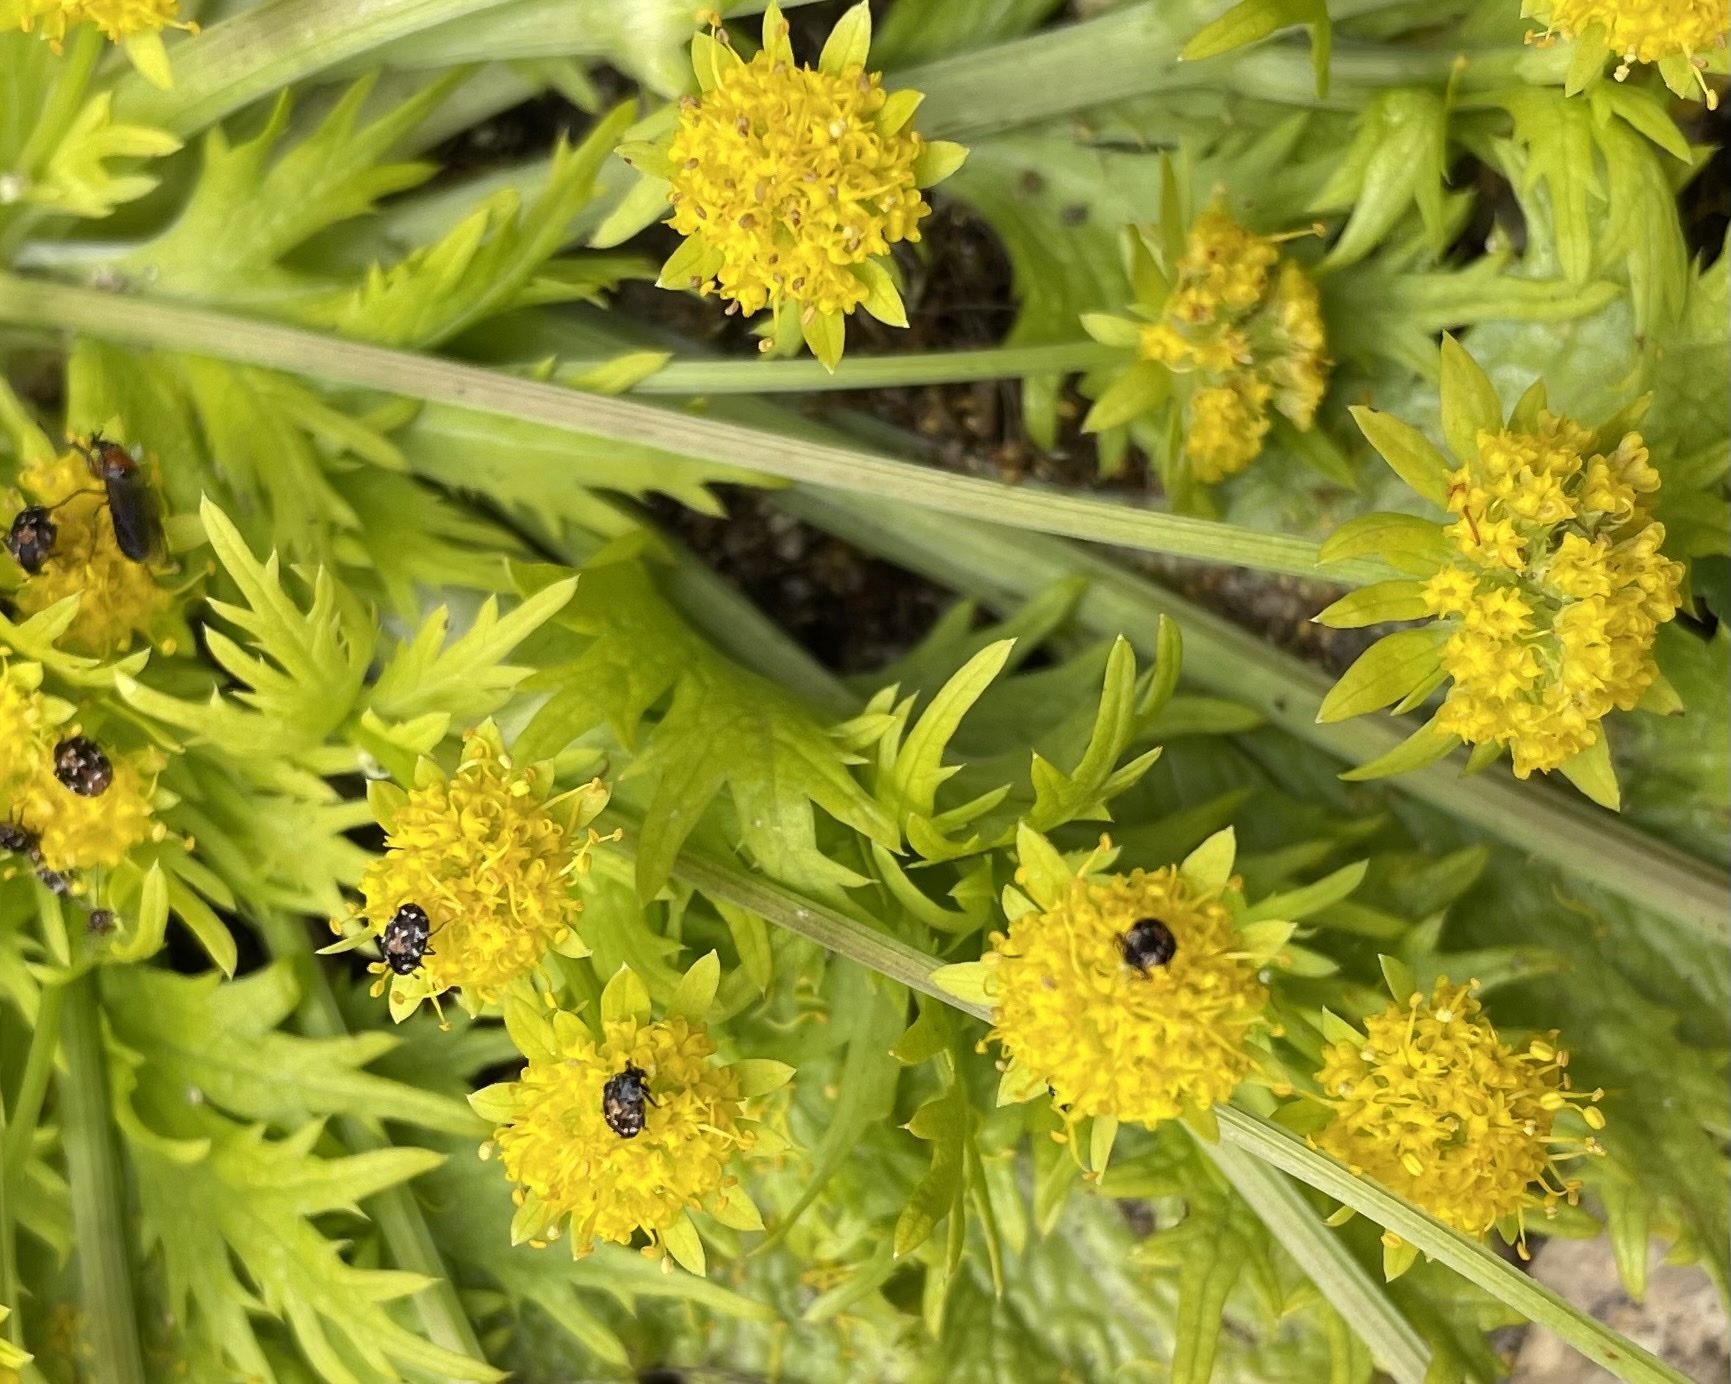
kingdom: Plantae
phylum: Tracheophyta
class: Magnoliopsida
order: Apiales
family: Apiaceae
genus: Sanicula
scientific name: Sanicula arctopoides
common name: Footsteps-of-spring
